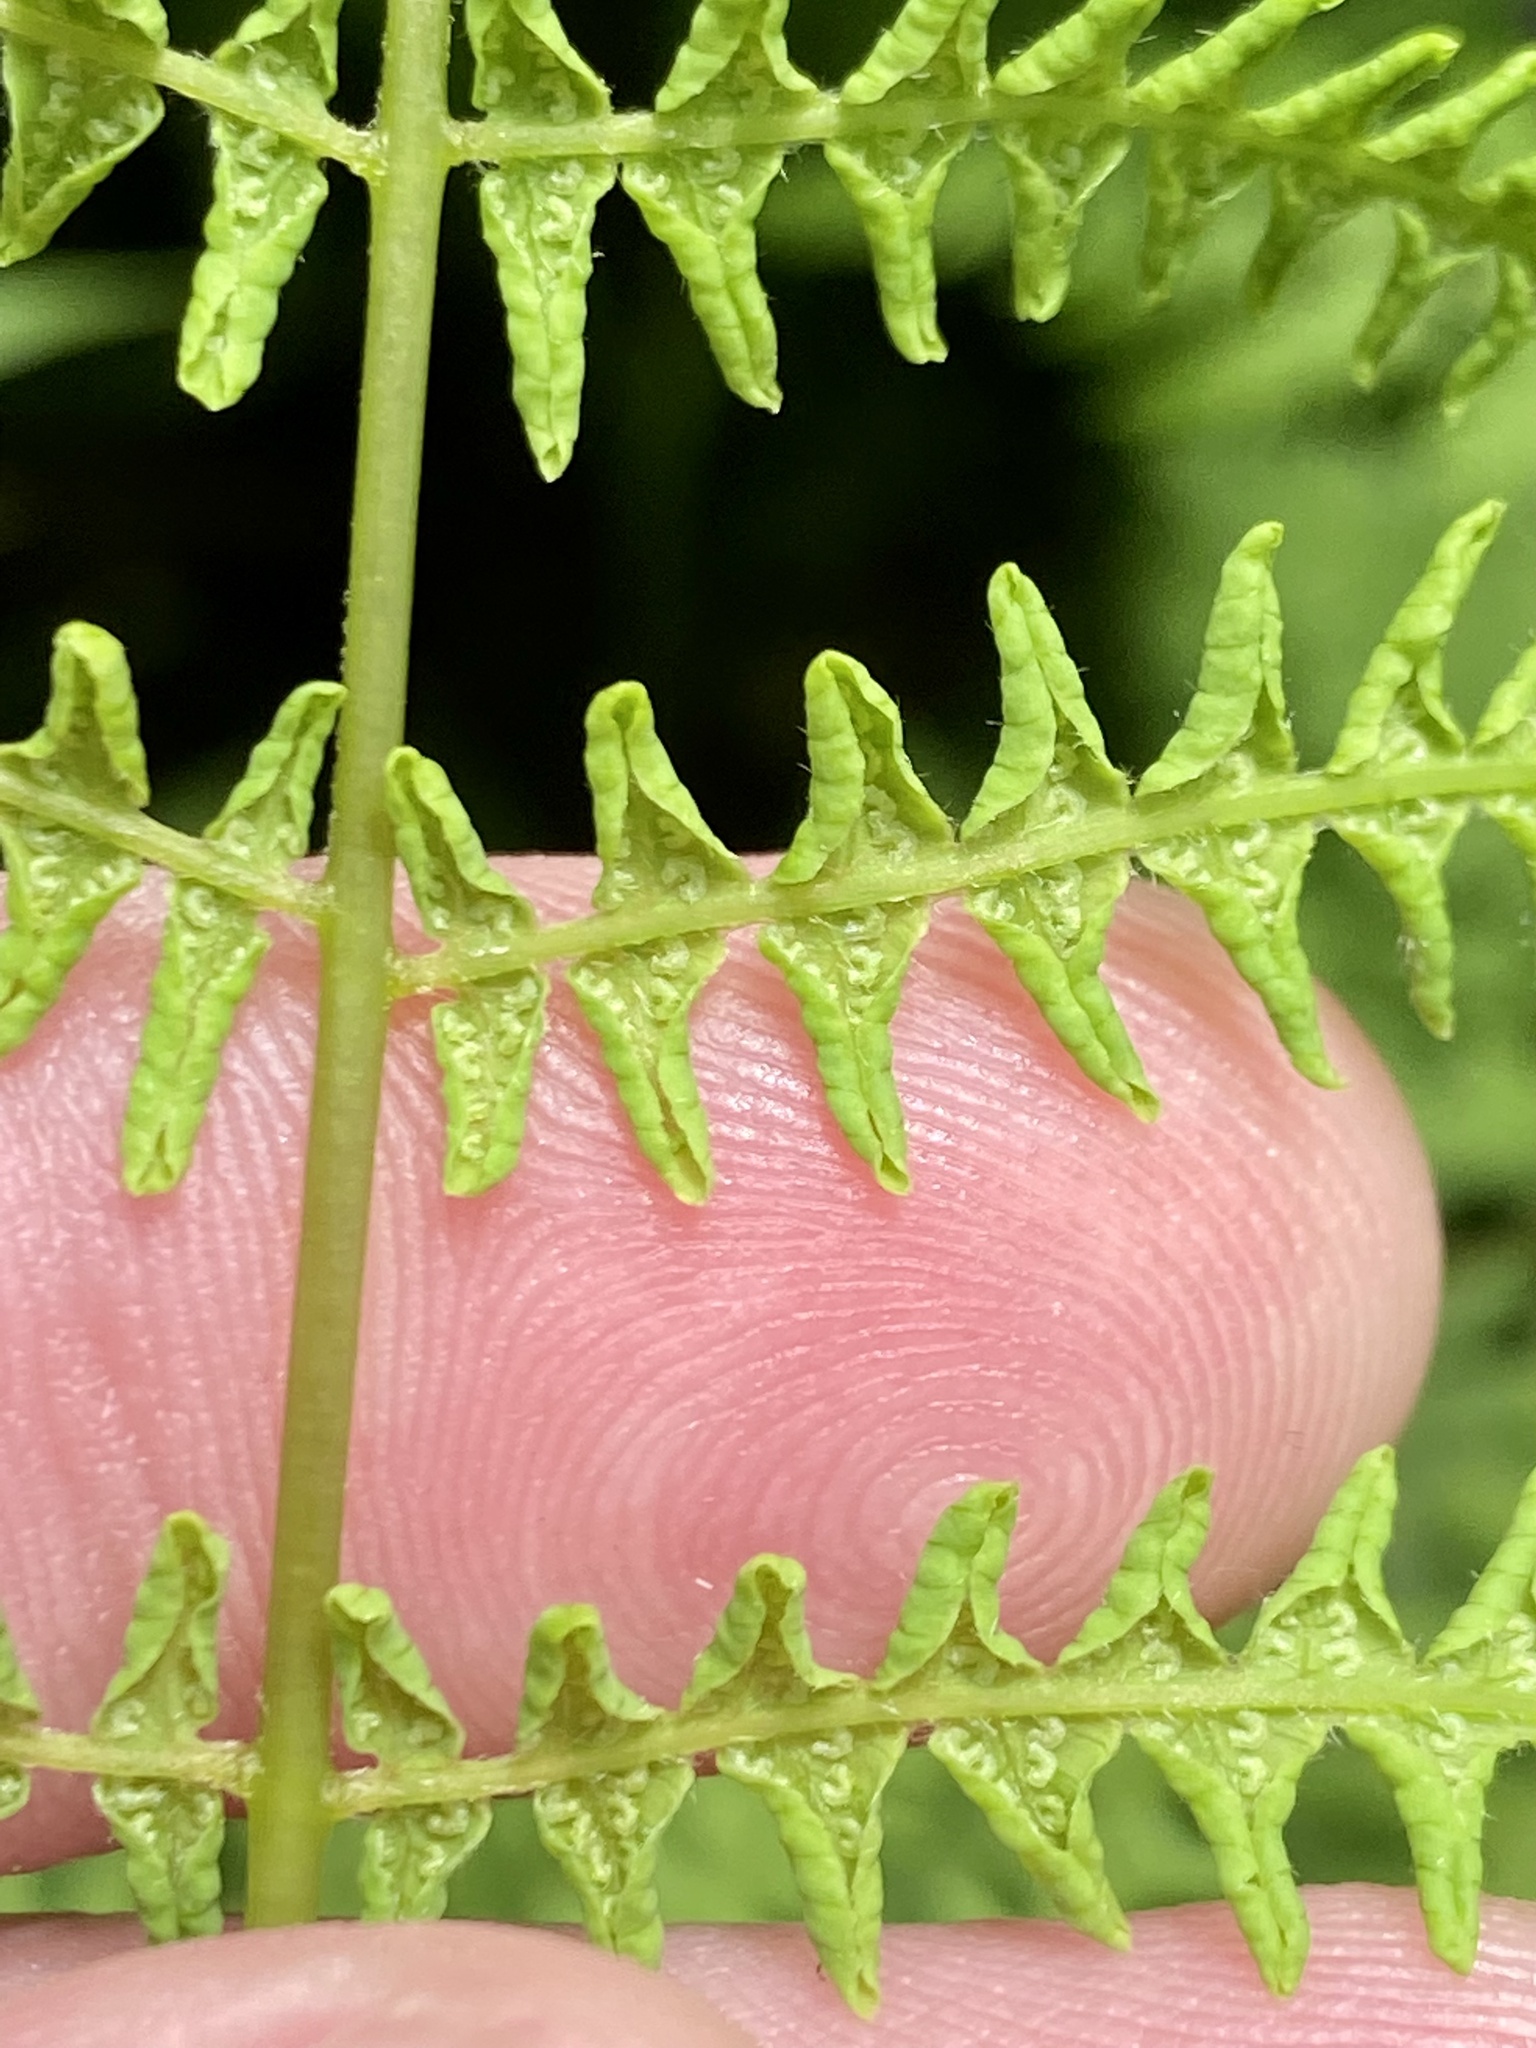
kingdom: Plantae
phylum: Tracheophyta
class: Polypodiopsida
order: Polypodiales
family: Thelypteridaceae
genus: Thelypteris
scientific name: Thelypteris palustris
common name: Marsh fern
